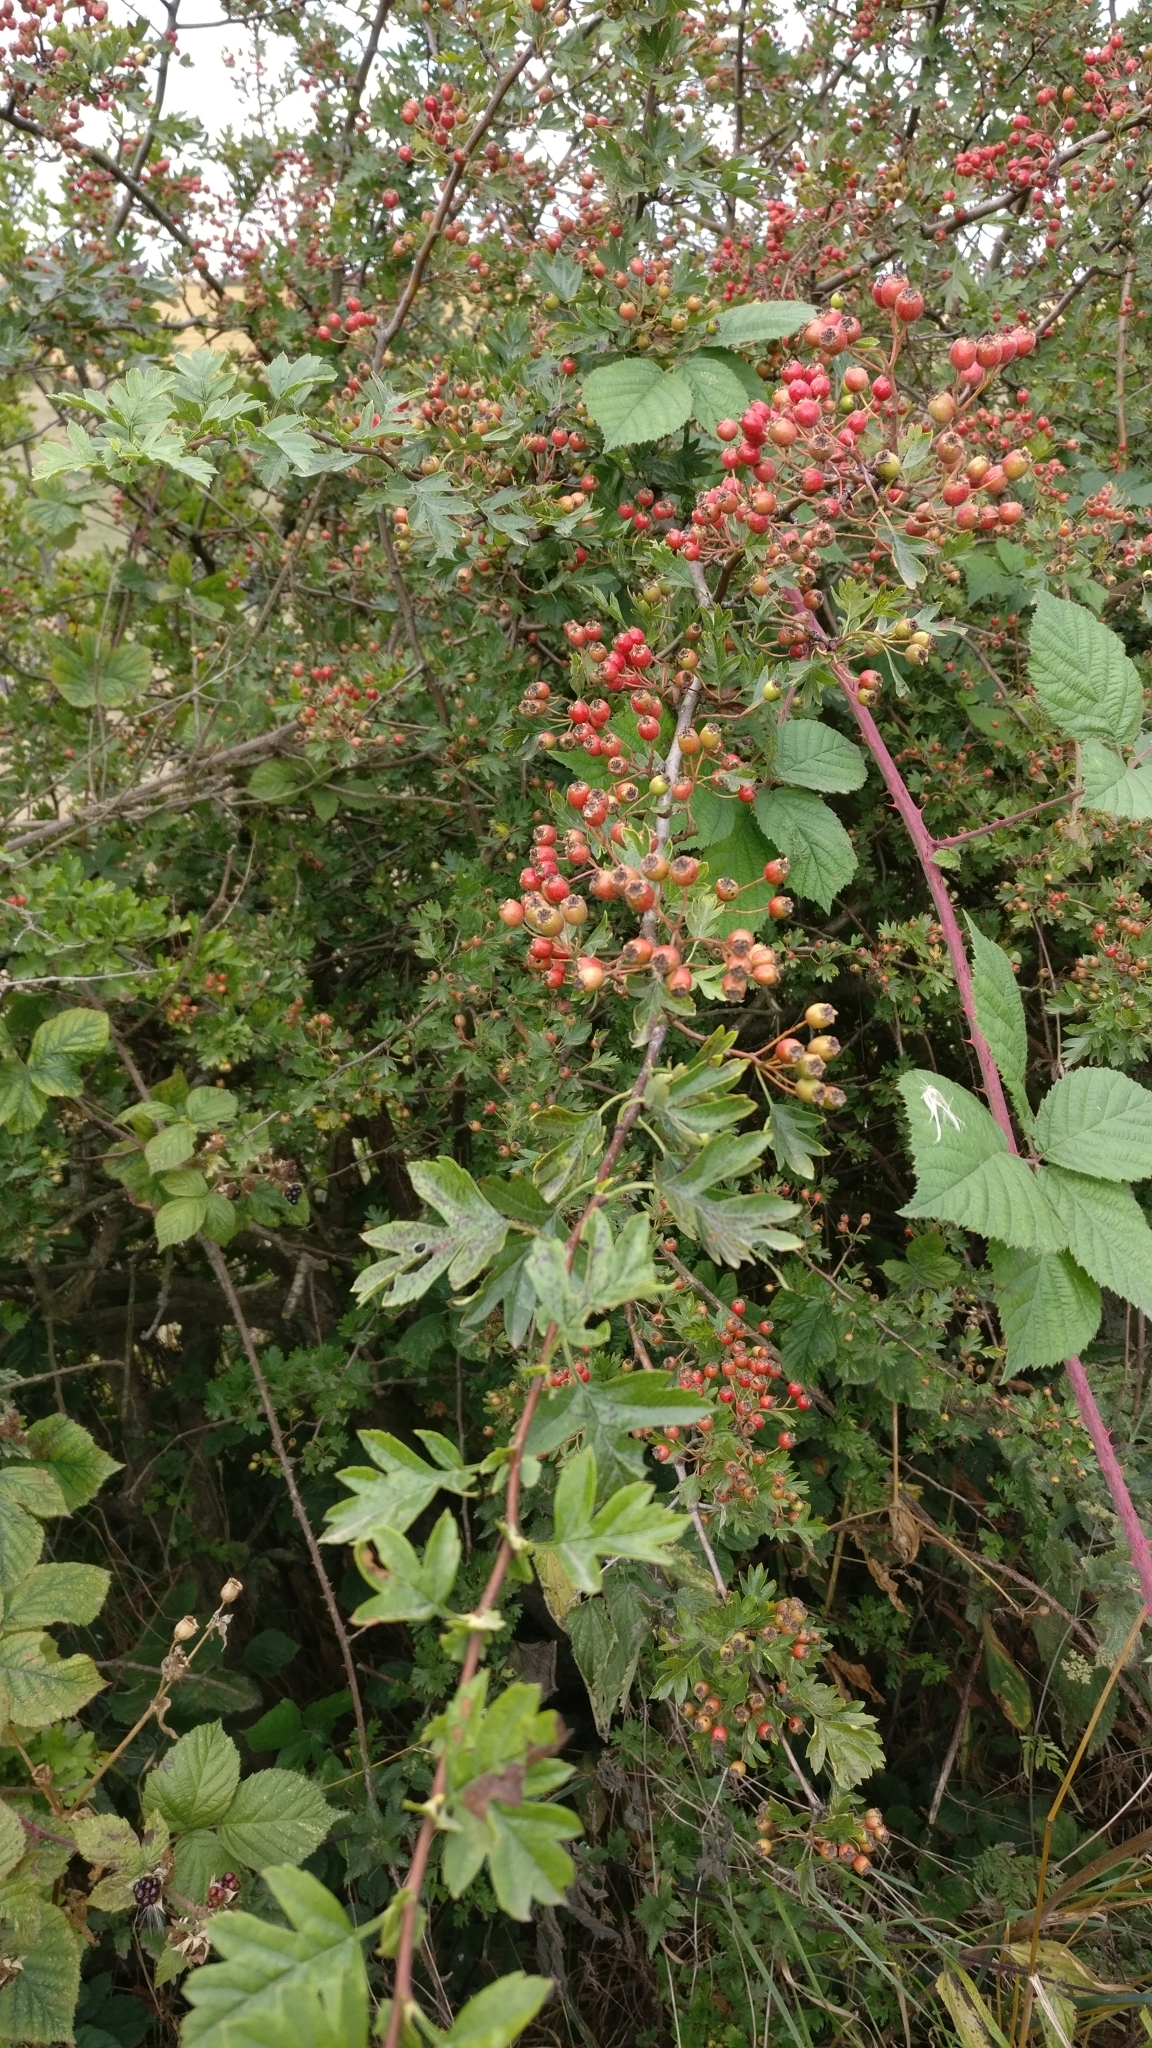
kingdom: Plantae
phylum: Tracheophyta
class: Magnoliopsida
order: Rosales
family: Rosaceae
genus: Crataegus
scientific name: Crataegus monogyna
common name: Hawthorn
